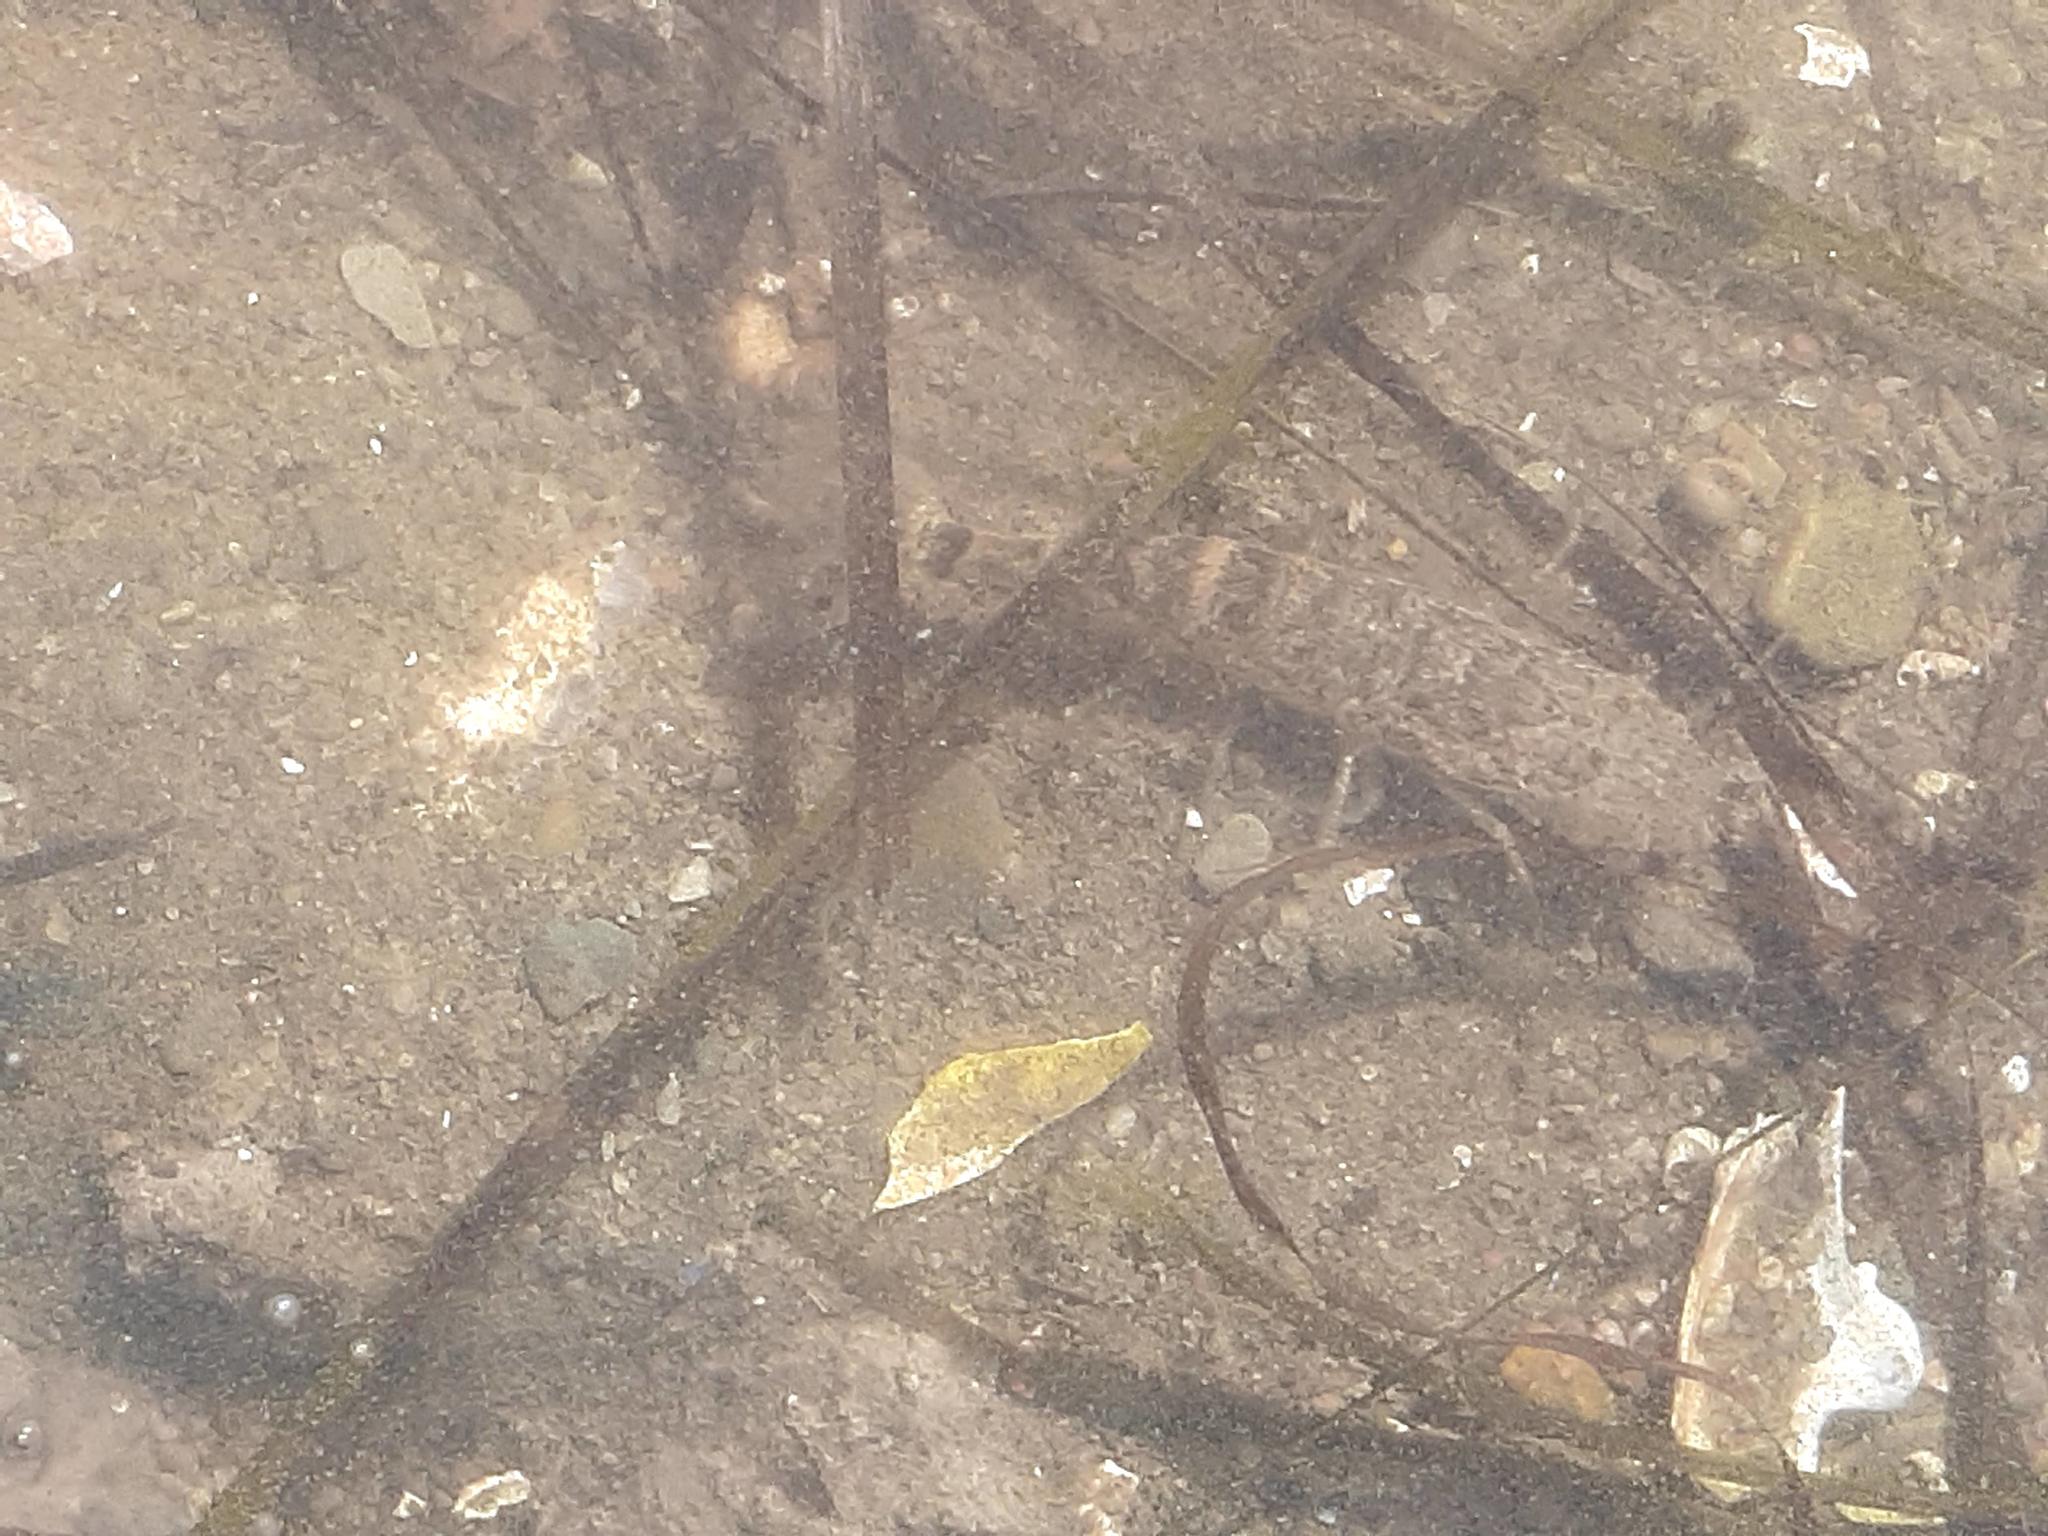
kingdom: Animalia
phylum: Arthropoda
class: Malacostraca
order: Decapoda
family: Crangonidae
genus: Crangon
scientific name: Crangon septemspinosa
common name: Bail shrimp
